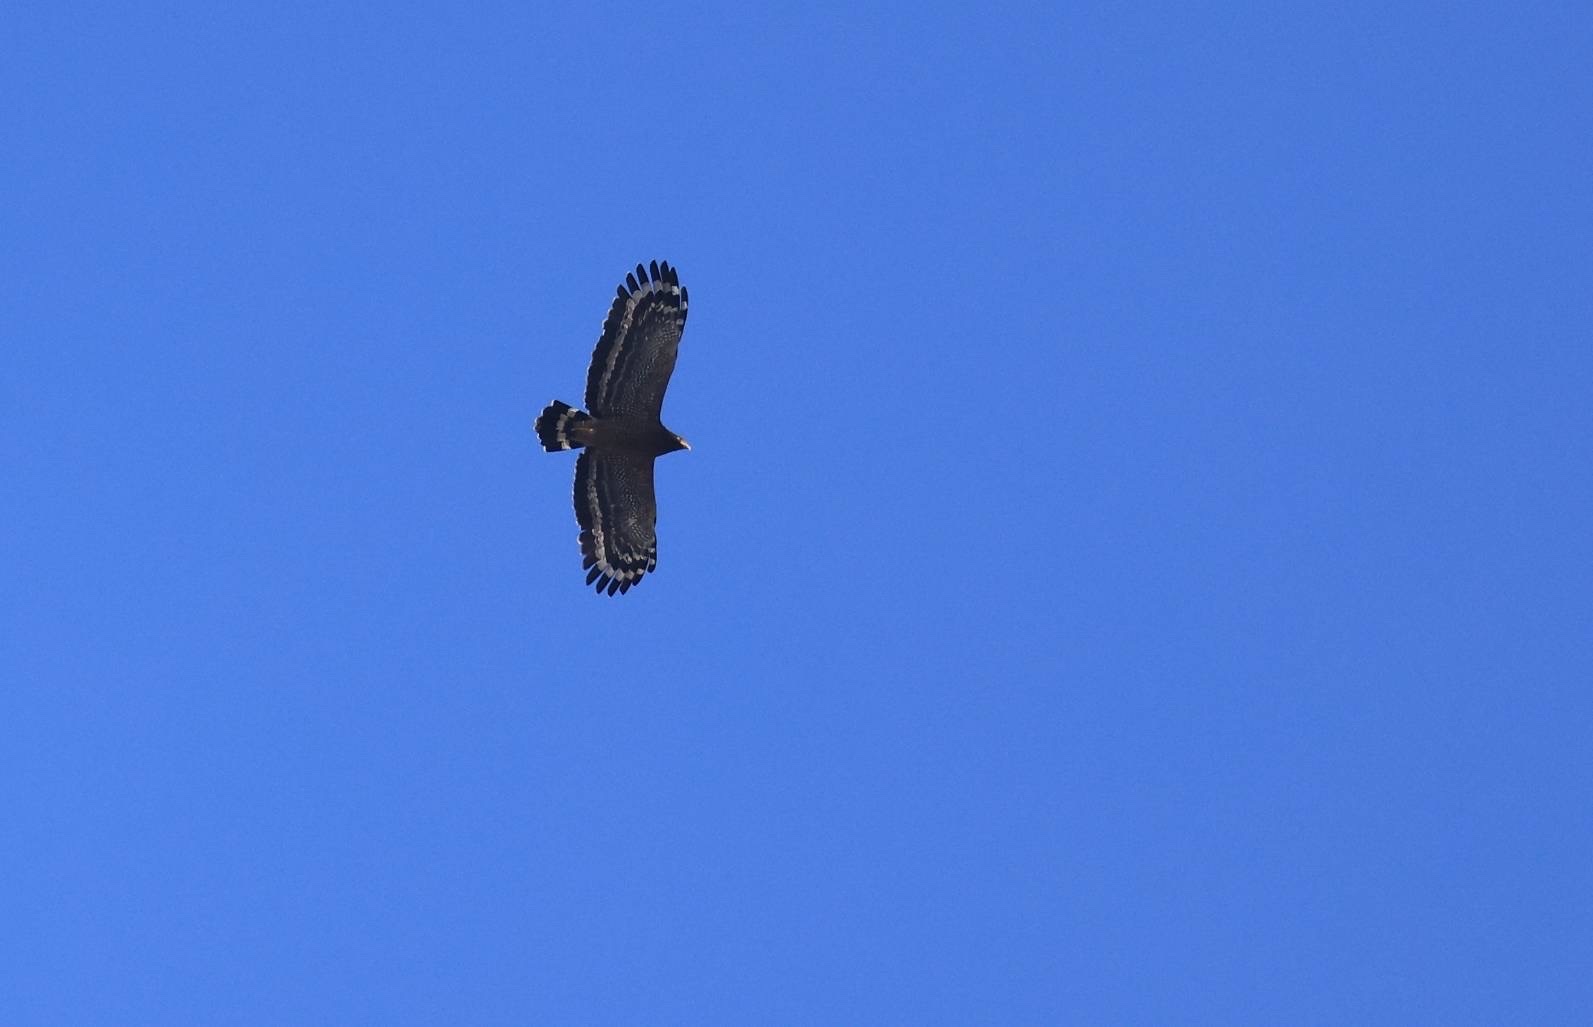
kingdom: Animalia
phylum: Chordata
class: Aves
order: Accipitriformes
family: Accipitridae
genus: Spilornis
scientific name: Spilornis cheela
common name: Crested serpent eagle
